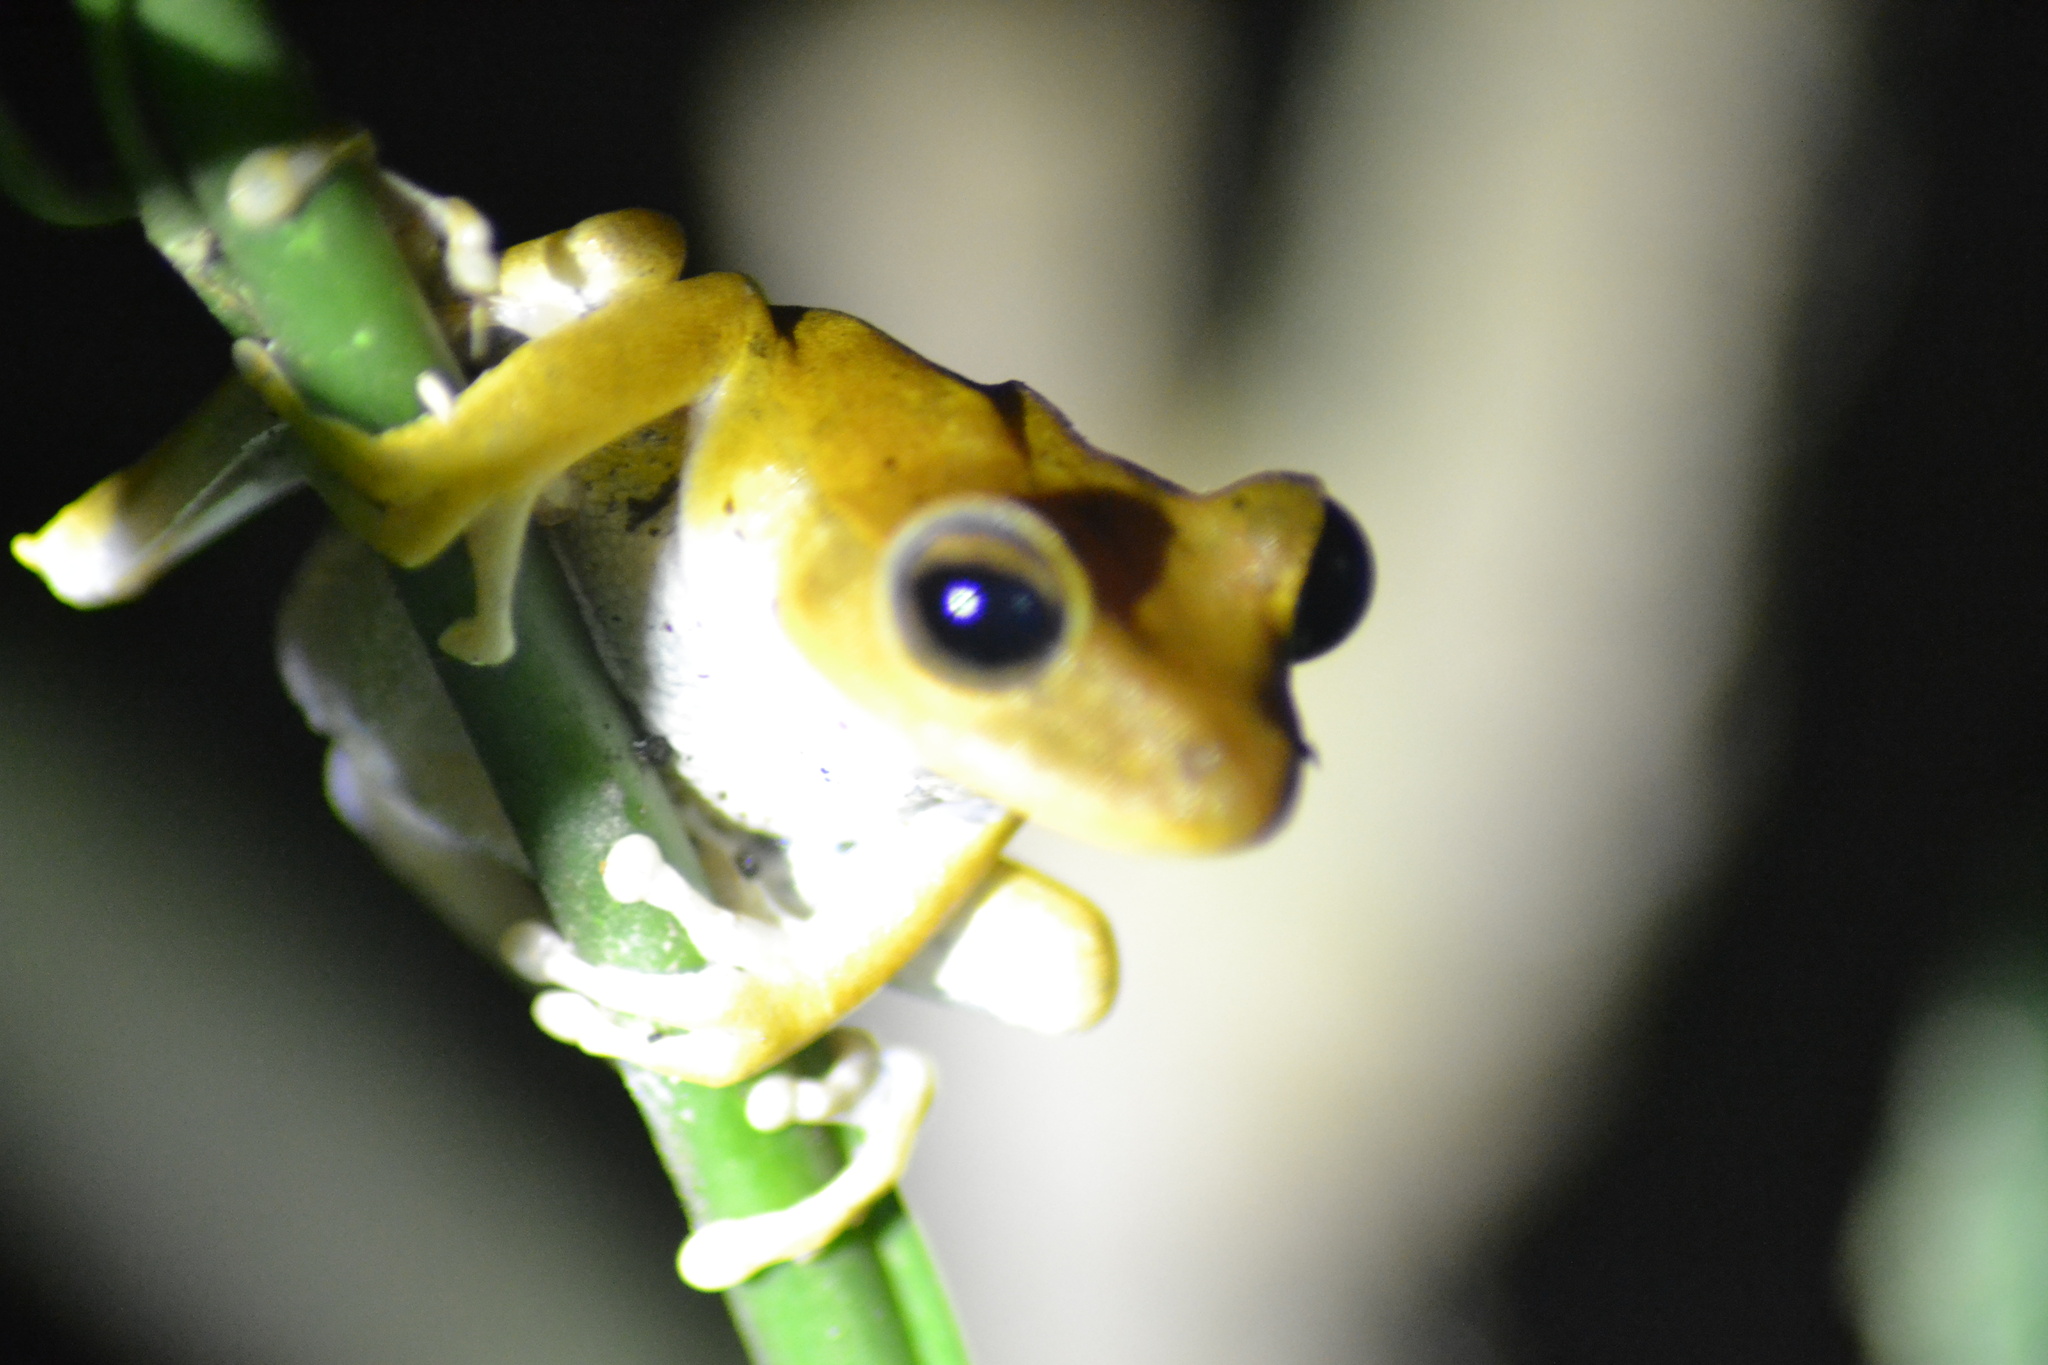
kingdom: Animalia
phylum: Chordata
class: Amphibia
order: Anura
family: Hylidae
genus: Boana
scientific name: Boana raniceps
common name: Chaco treefrog
